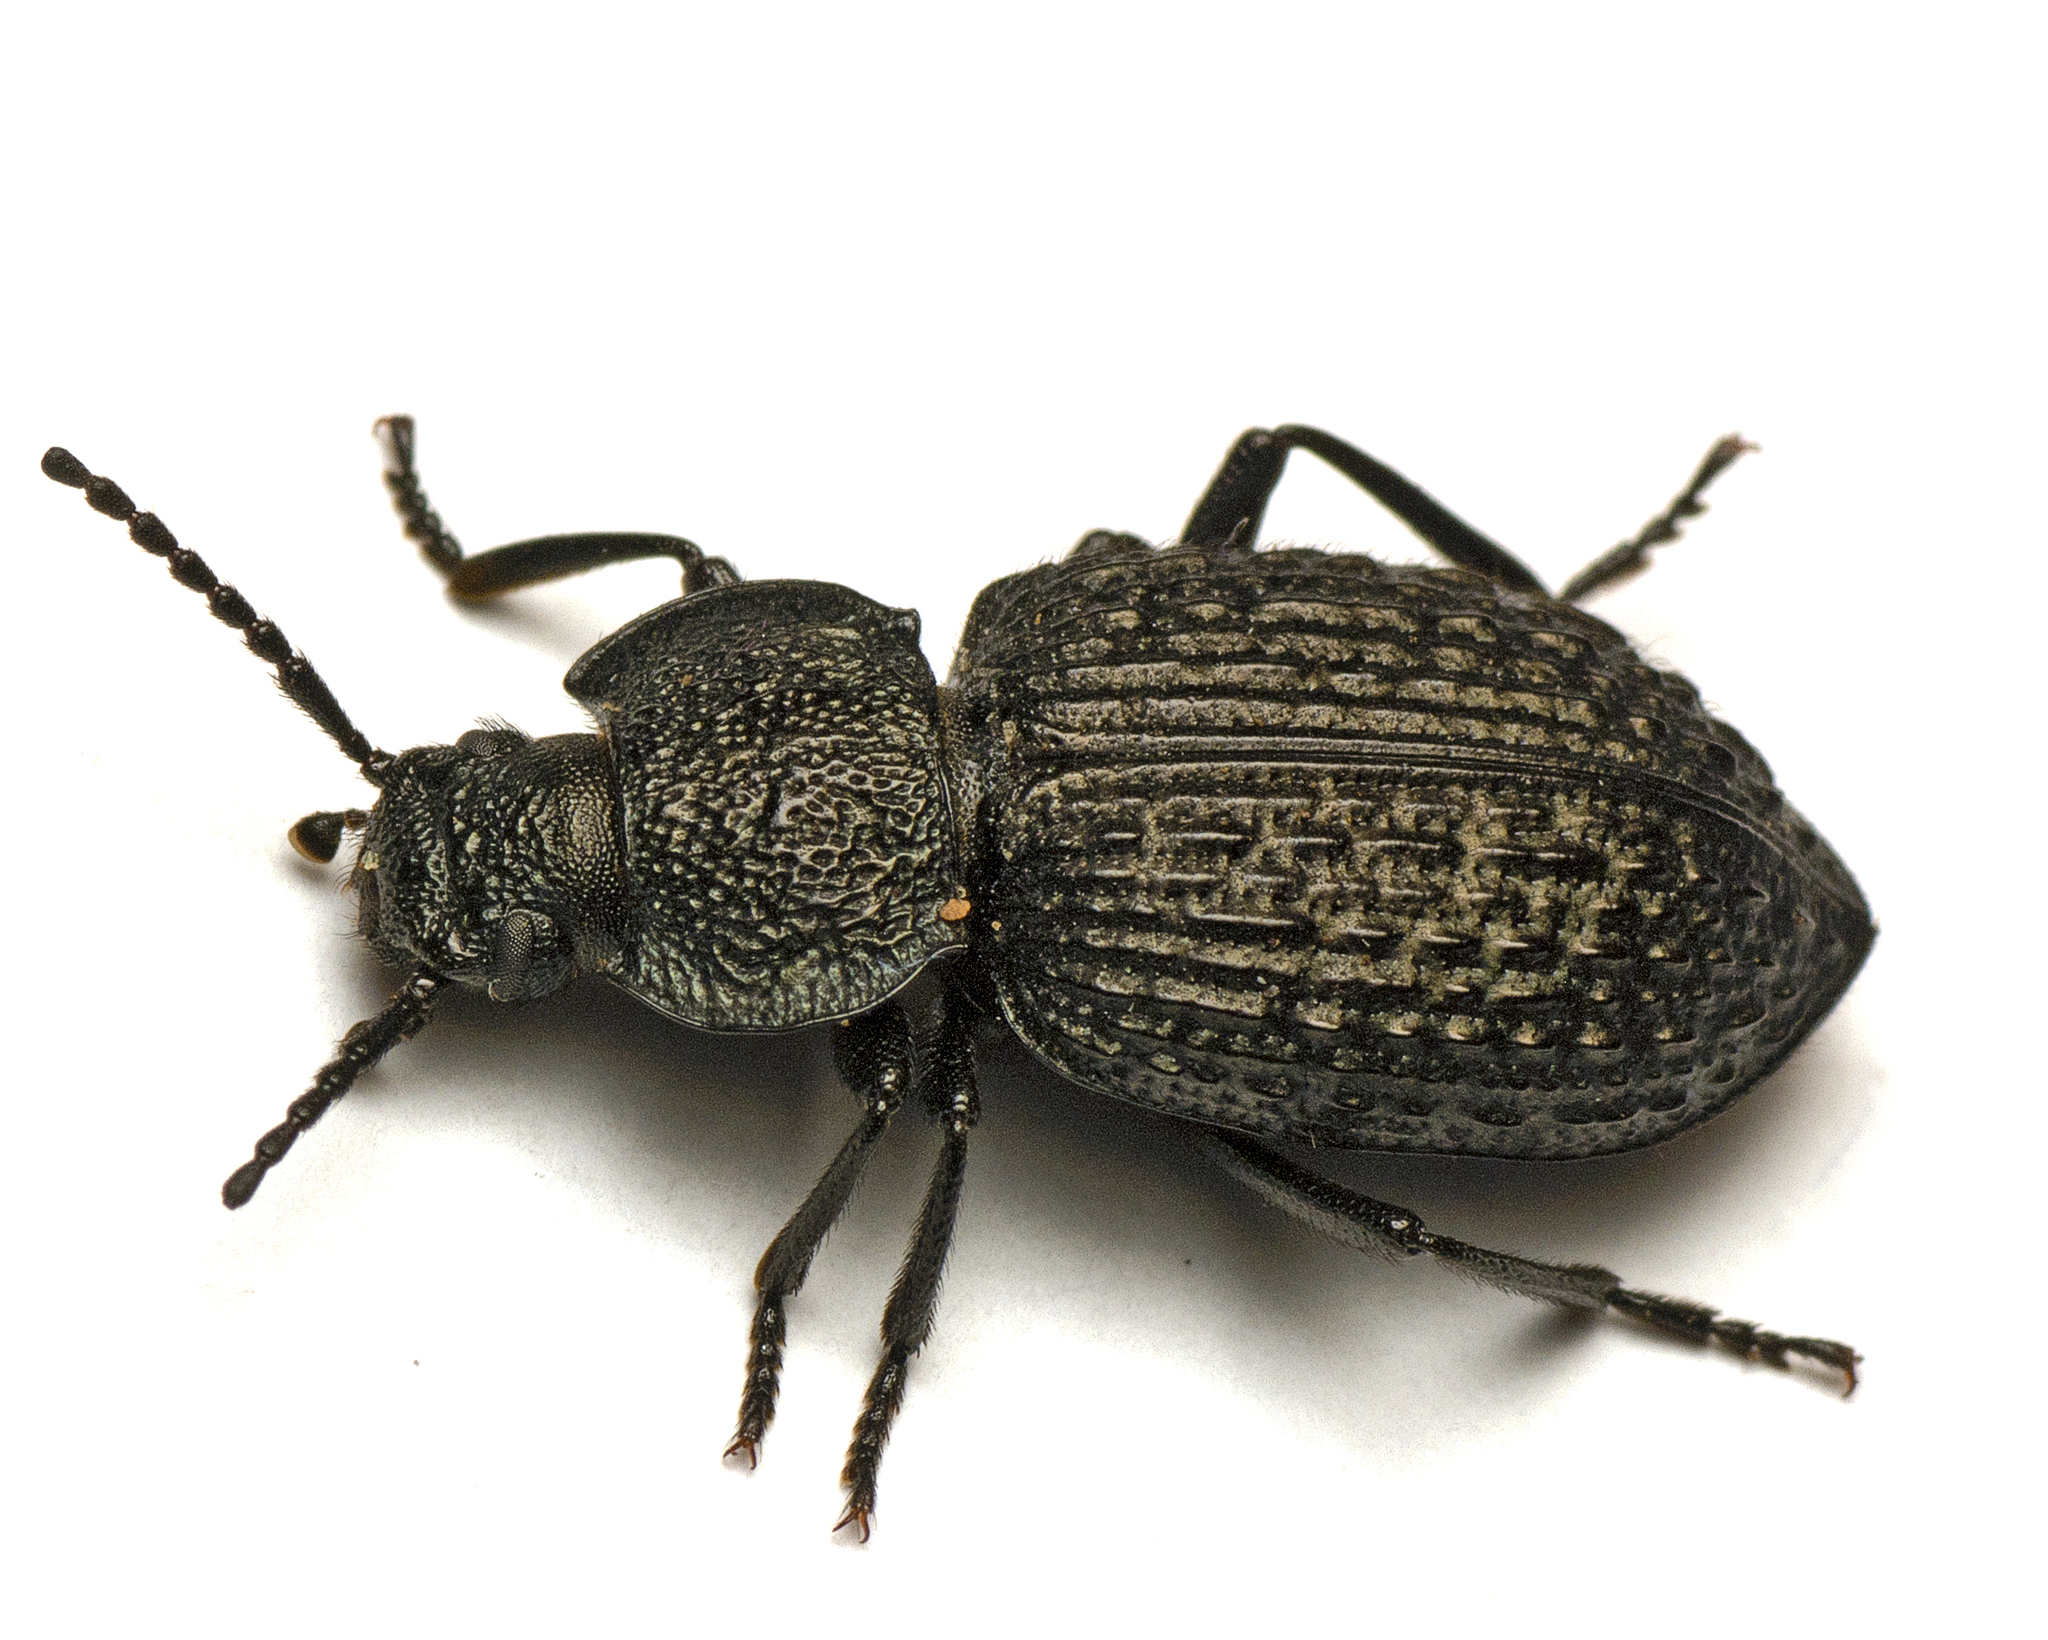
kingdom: Animalia
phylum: Arthropoda
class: Insecta
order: Coleoptera
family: Tenebrionidae
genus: Adelium
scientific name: Adelium
